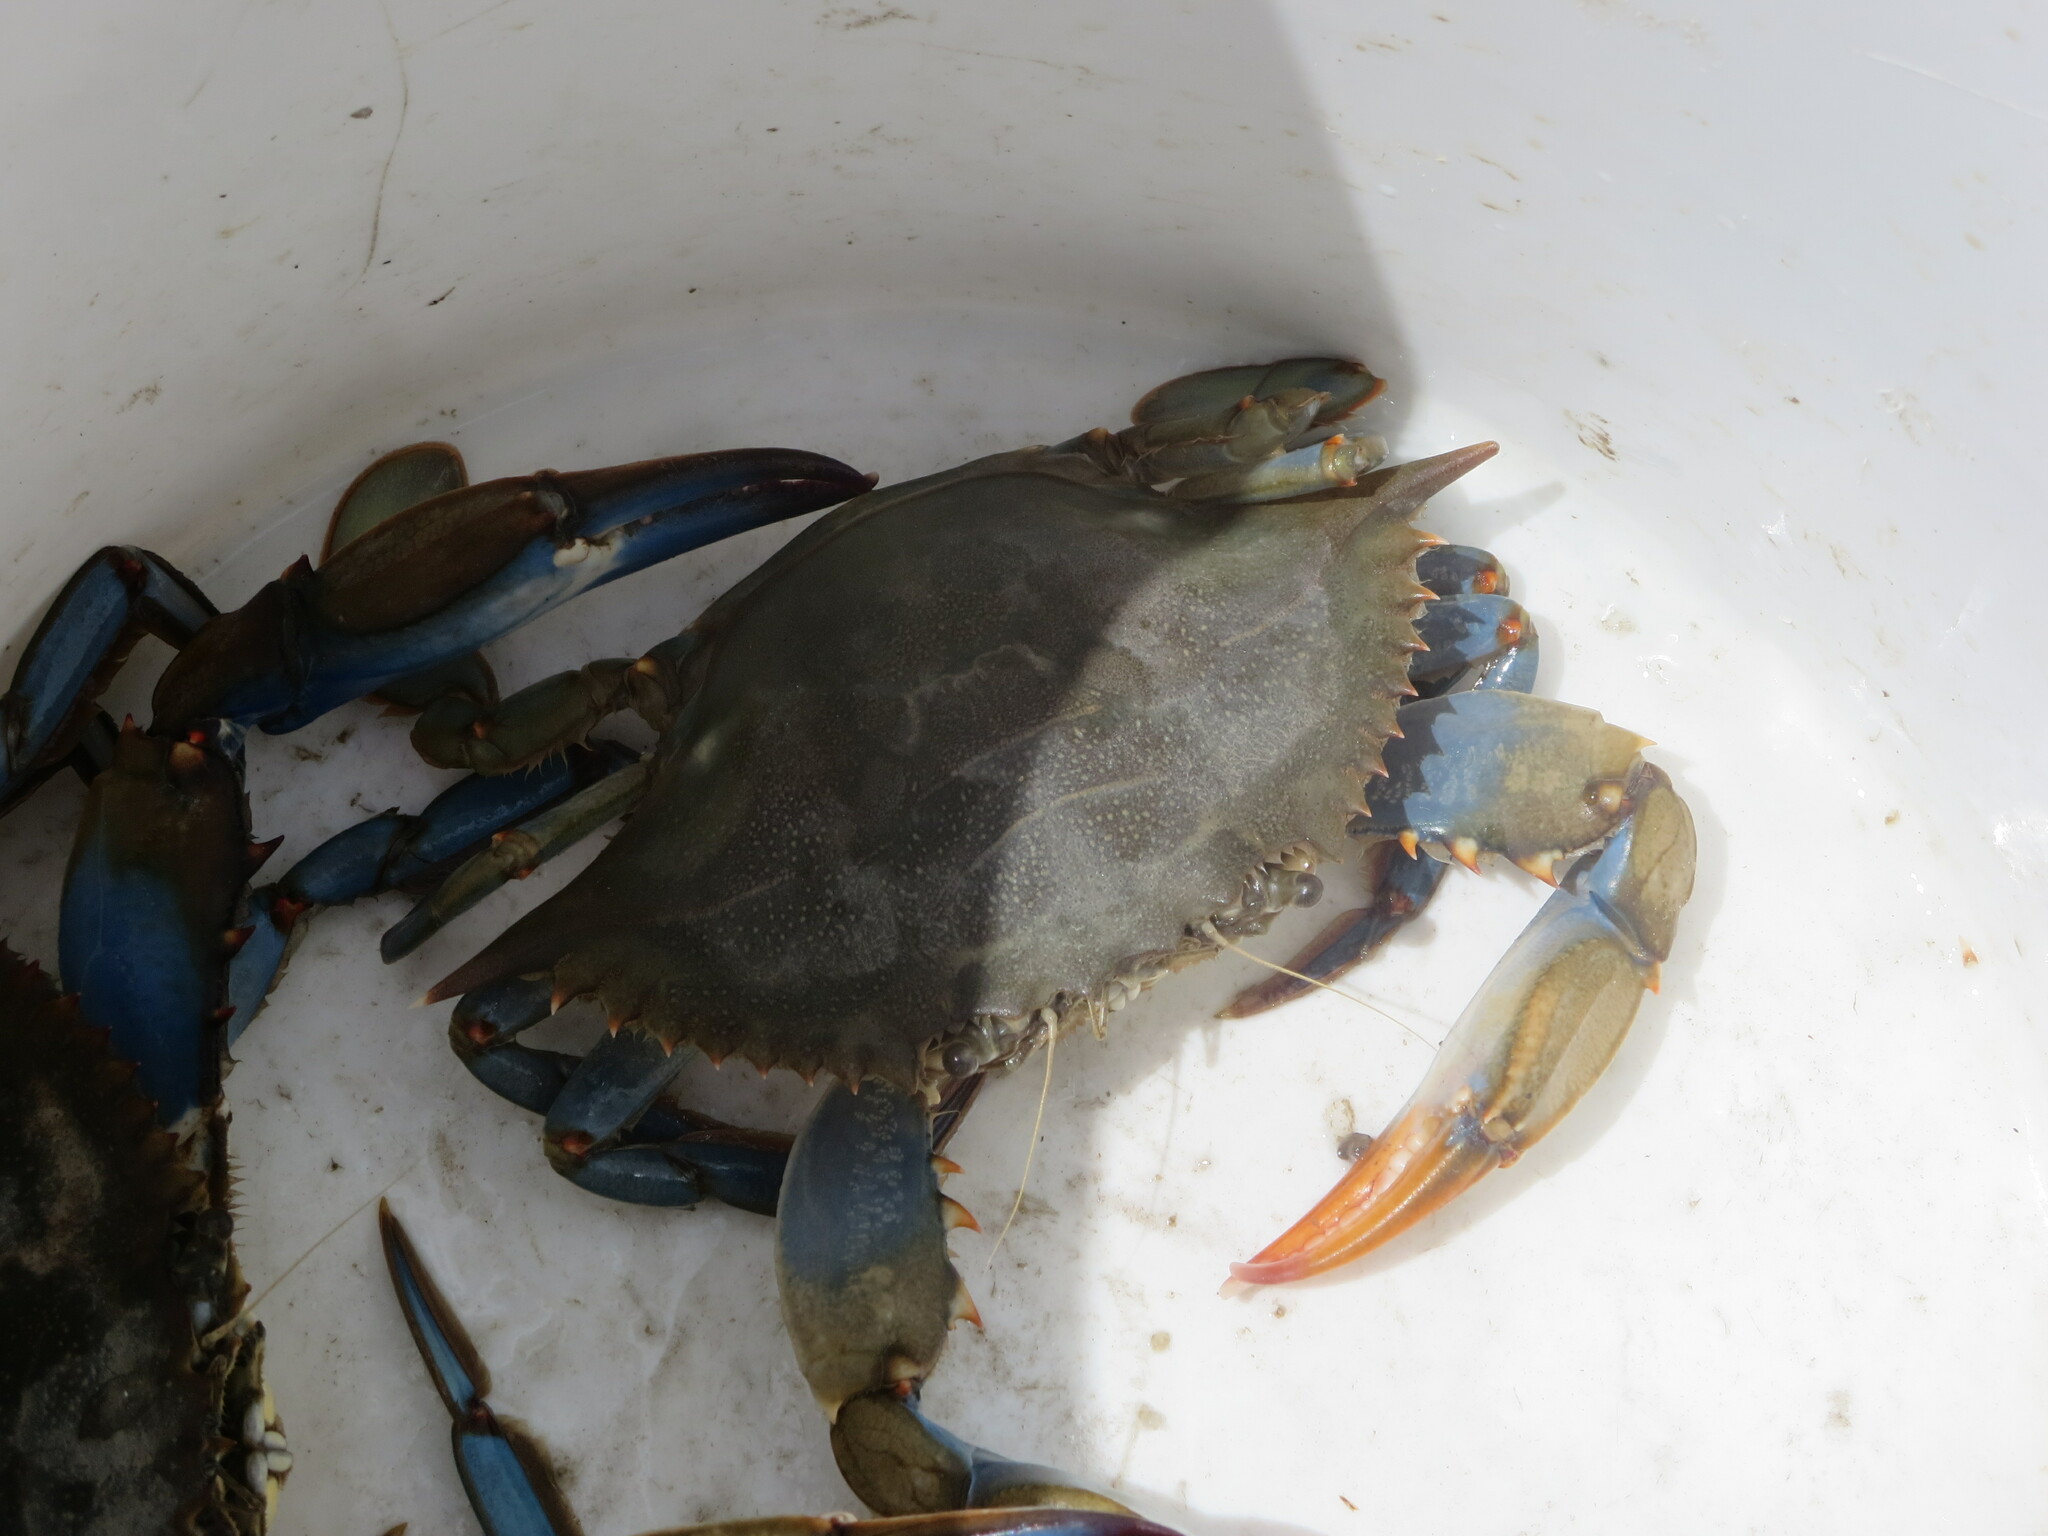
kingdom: Animalia
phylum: Arthropoda
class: Malacostraca
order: Decapoda
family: Portunidae
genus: Callinectes
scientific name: Callinectes sapidus
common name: Blue crab
